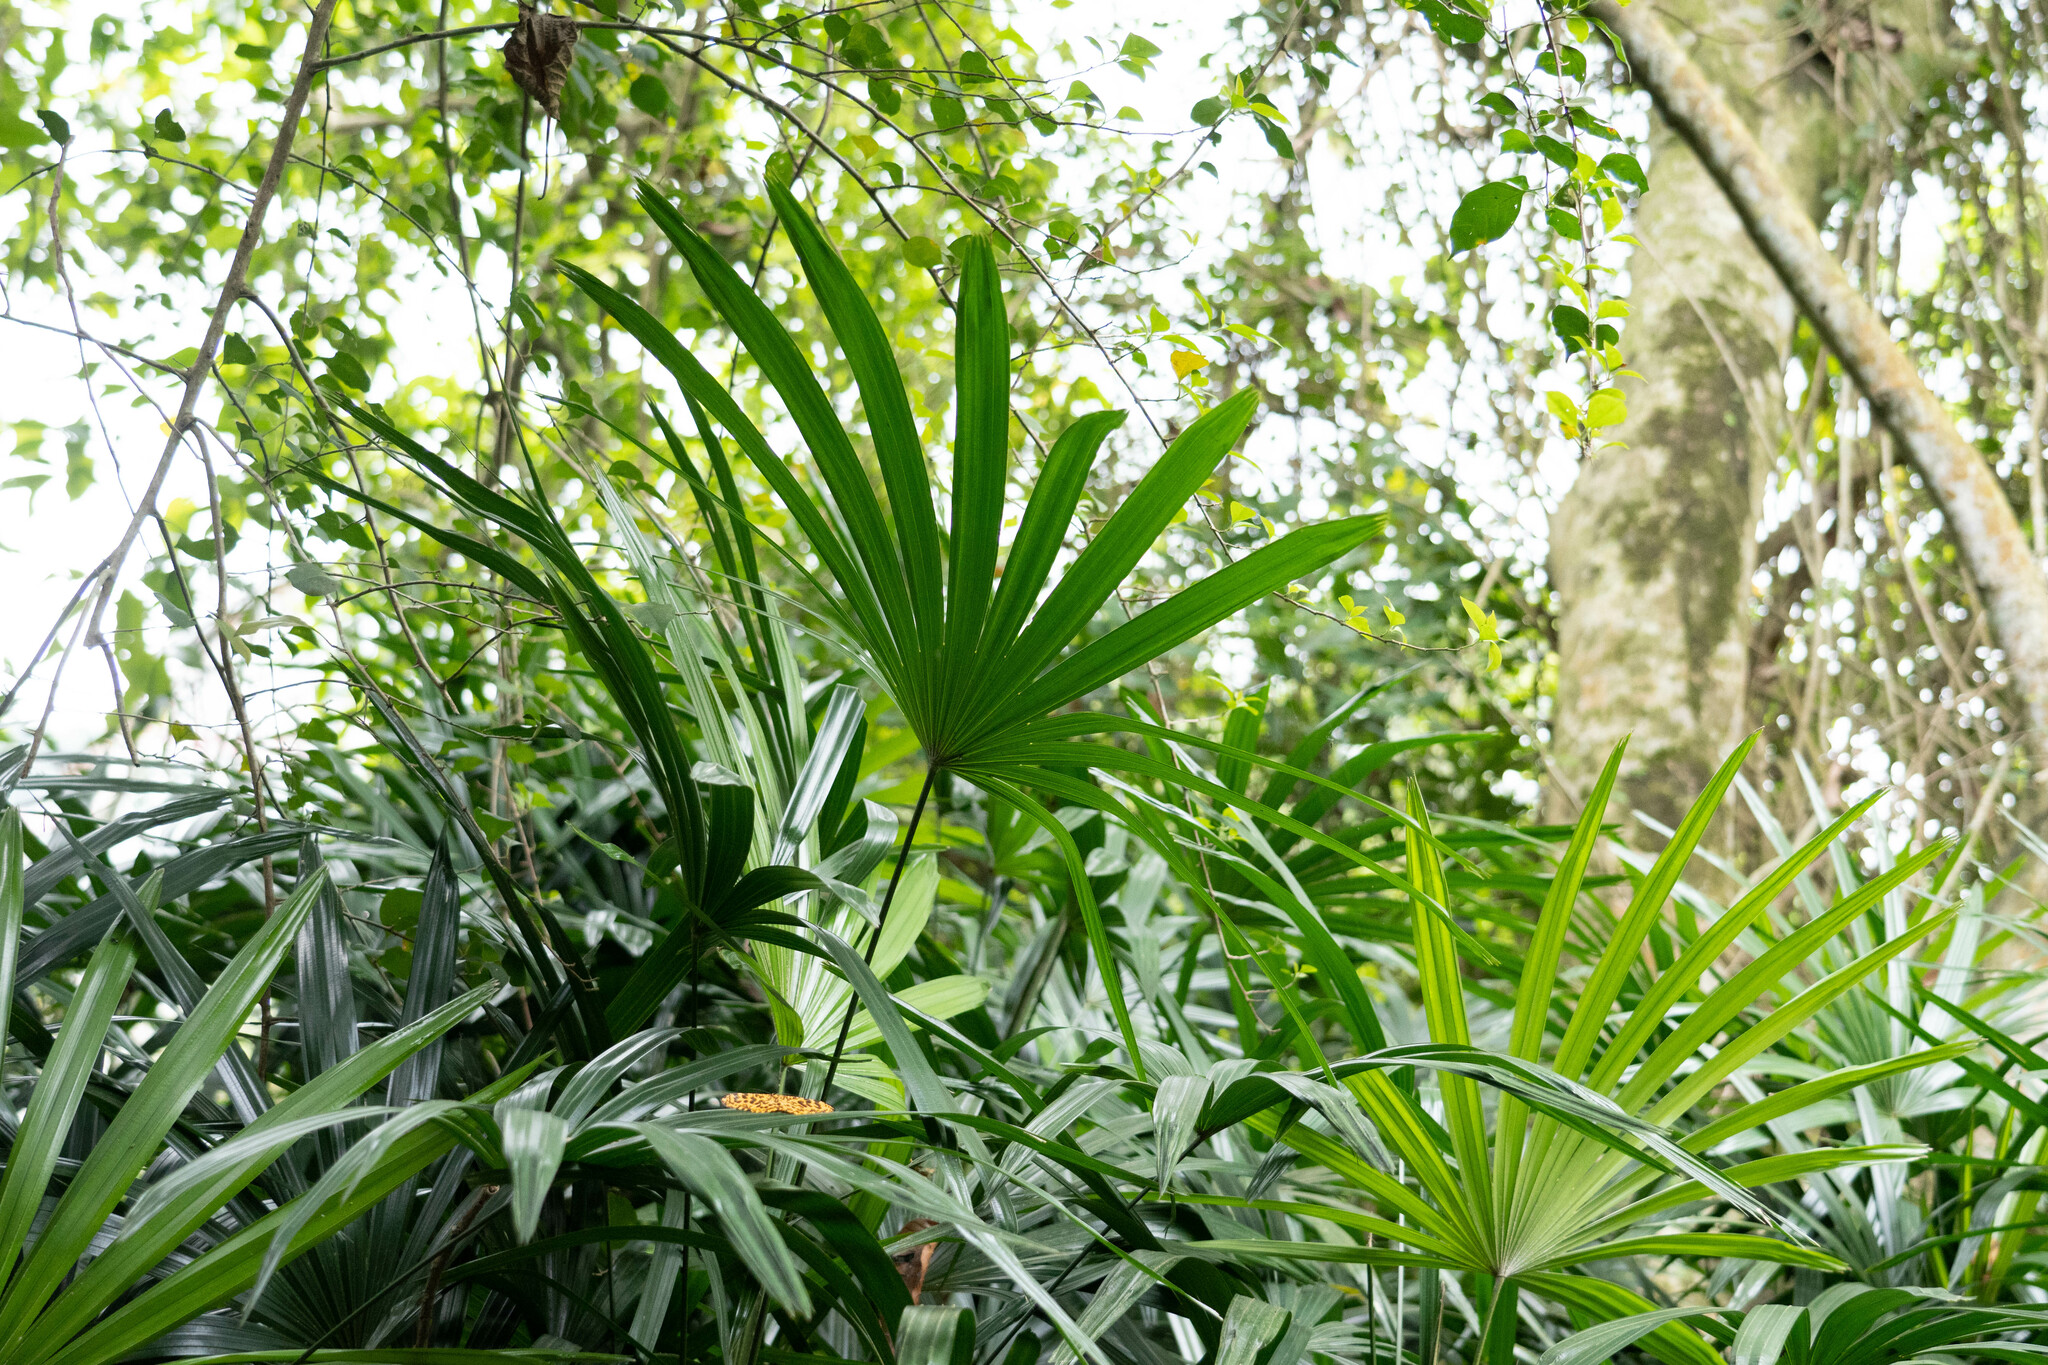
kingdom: Plantae
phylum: Tracheophyta
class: Liliopsida
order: Arecales
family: Arecaceae
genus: Rhapis
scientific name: Rhapis excelsa
